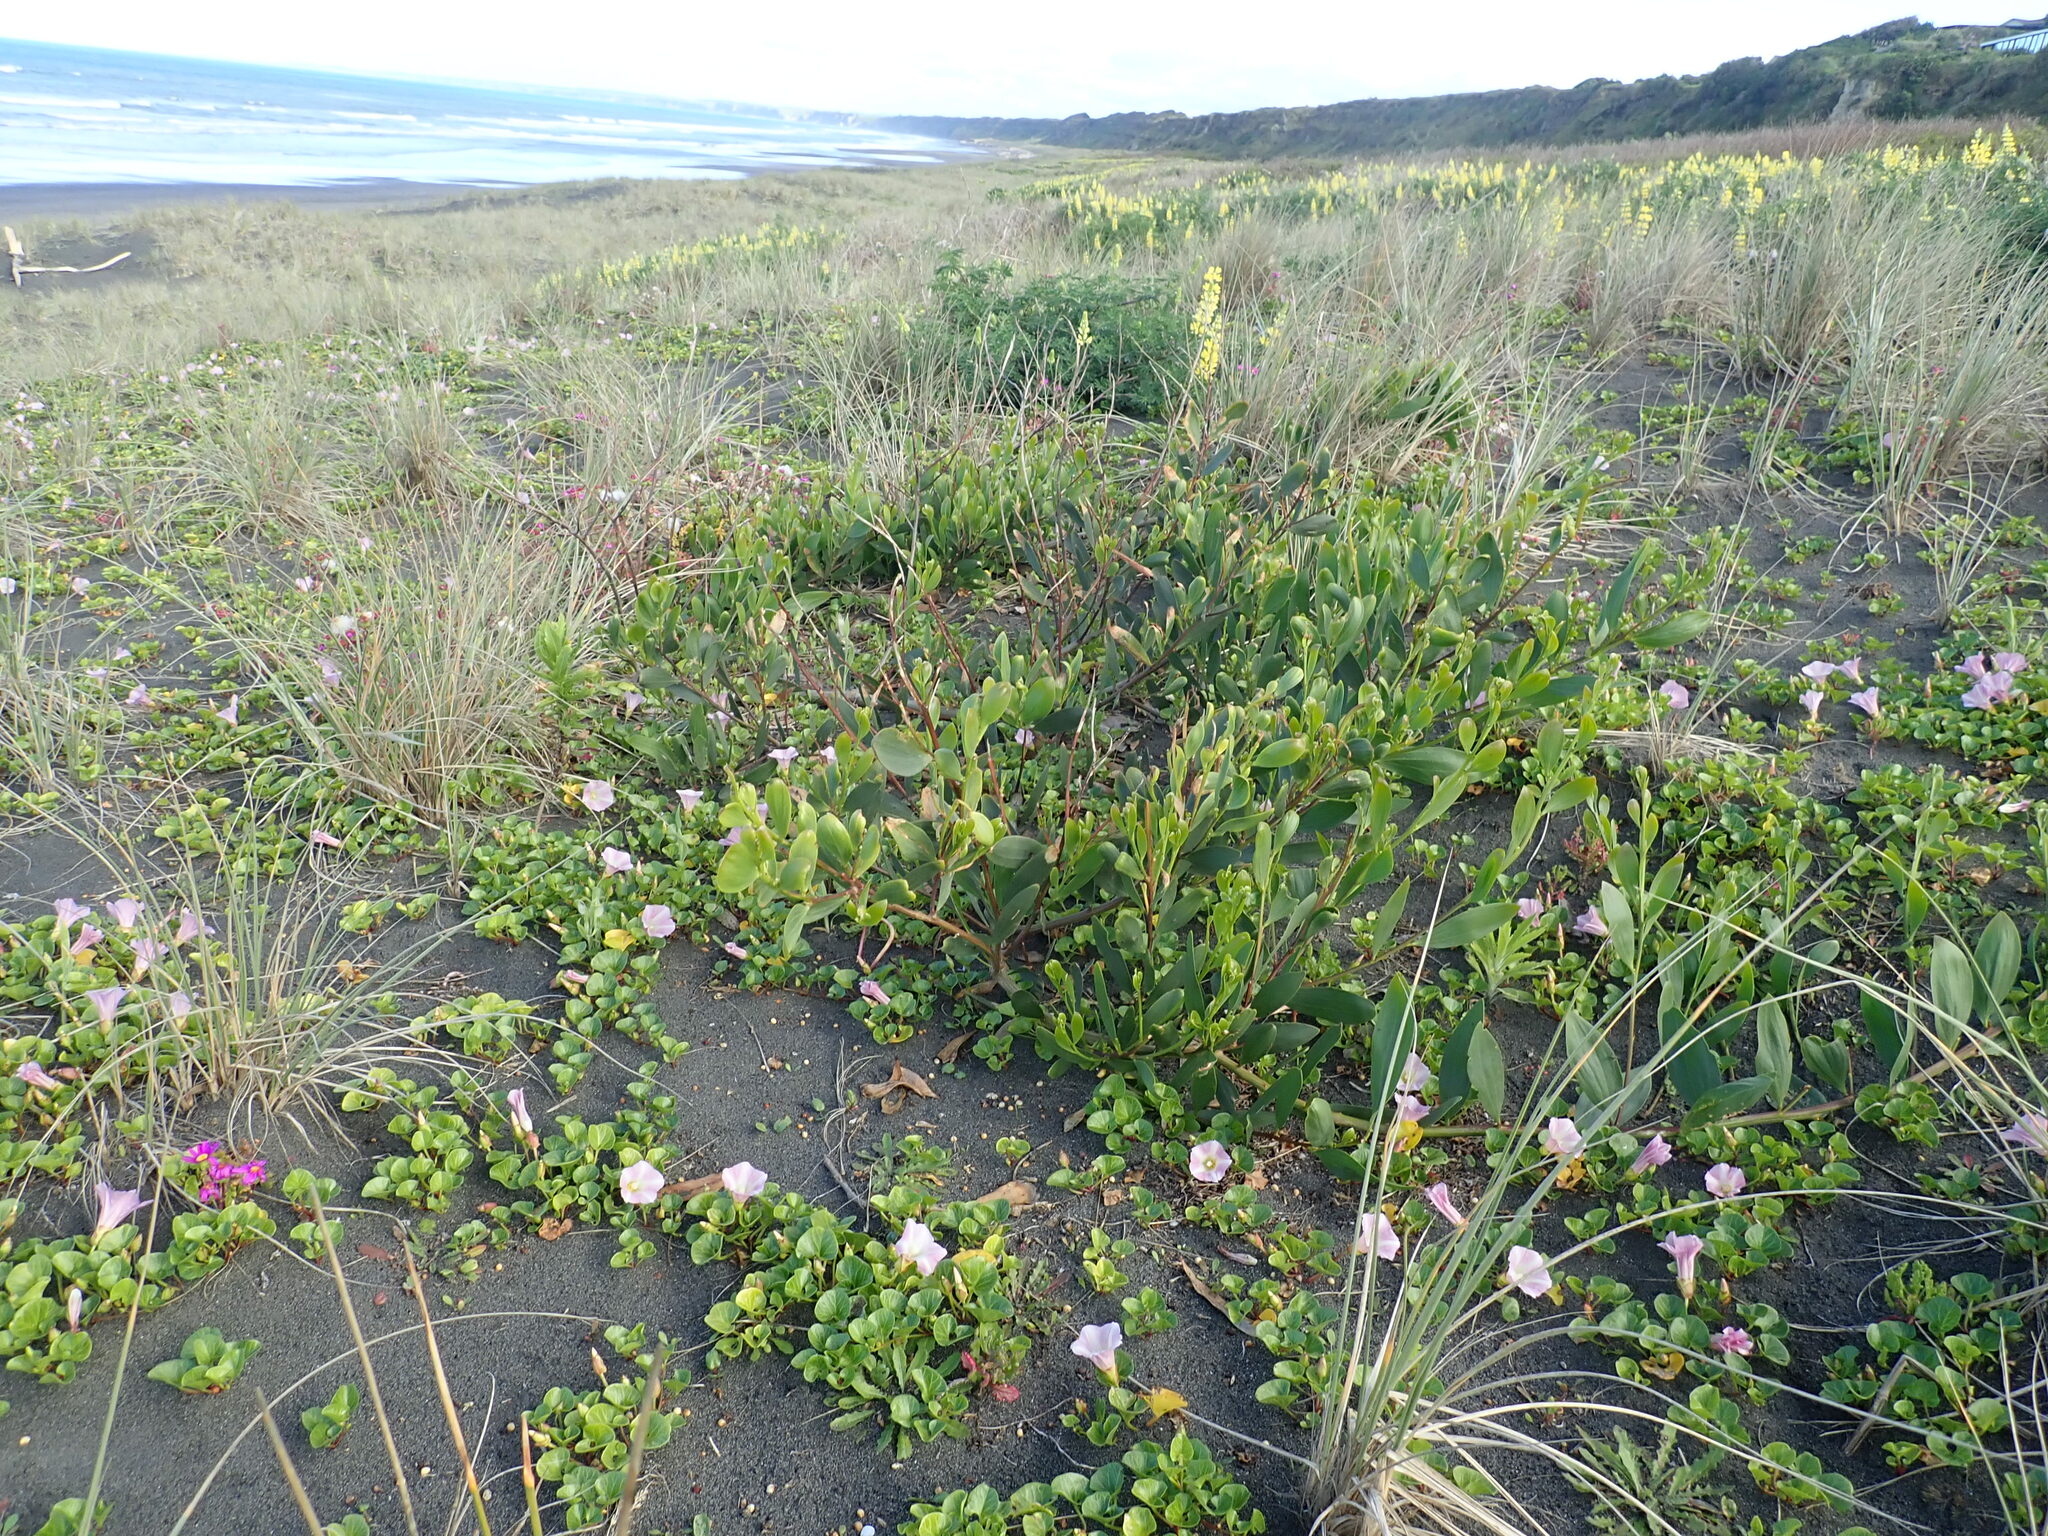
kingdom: Plantae
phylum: Tracheophyta
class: Magnoliopsida
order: Fabales
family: Fabaceae
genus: Acacia
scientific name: Acacia longifolia
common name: Sydney golden wattle
